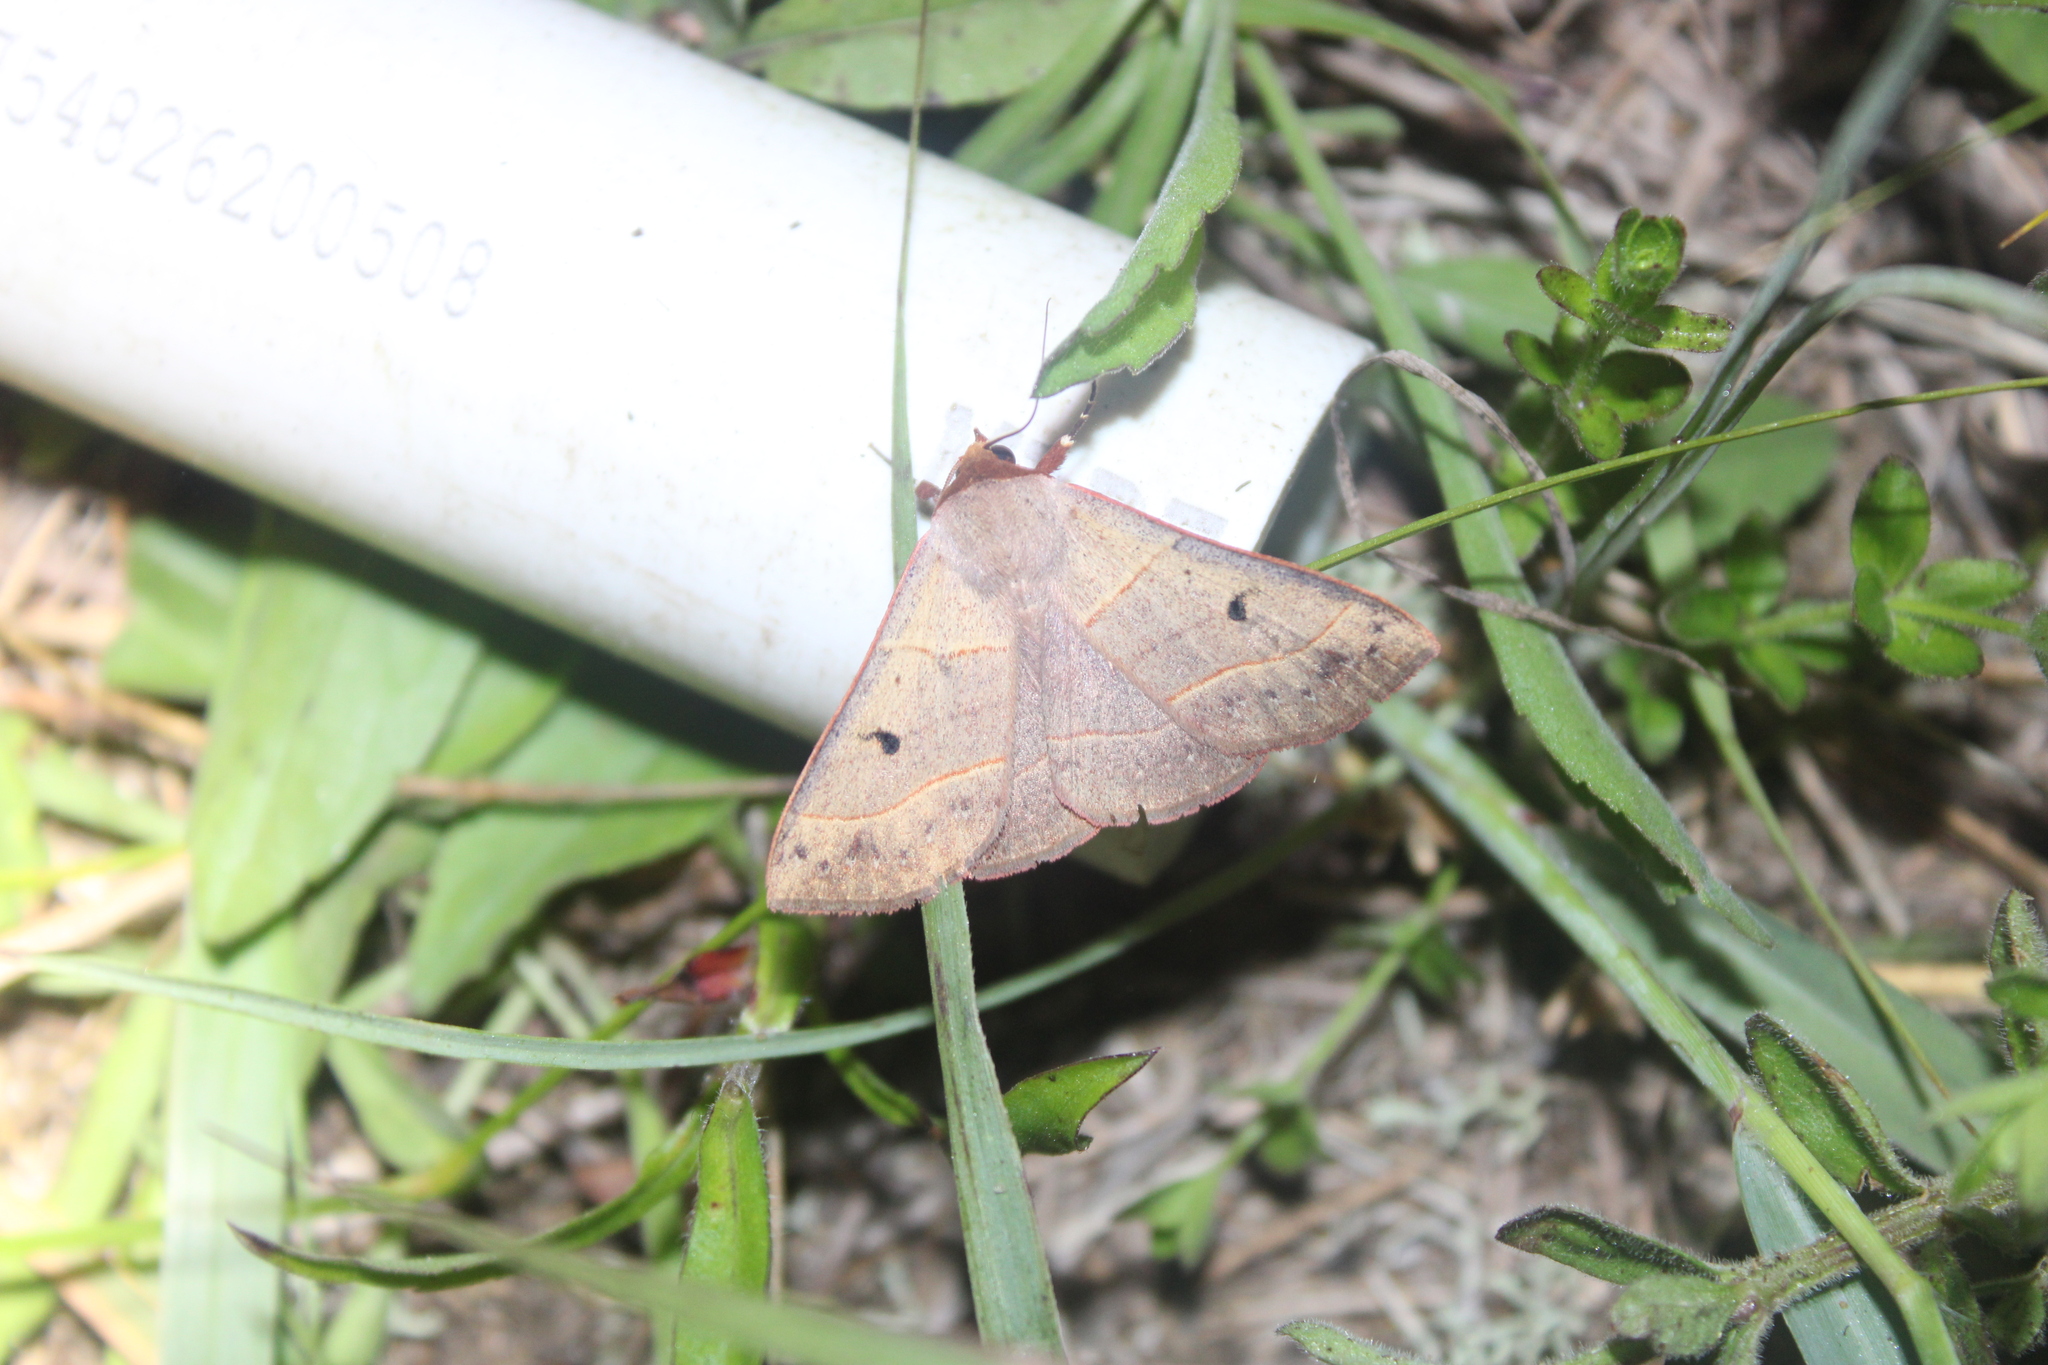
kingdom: Animalia
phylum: Arthropoda
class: Insecta
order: Lepidoptera
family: Erebidae
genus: Panopoda
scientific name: Panopoda rufimargo
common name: Red-lined panopoda moth
